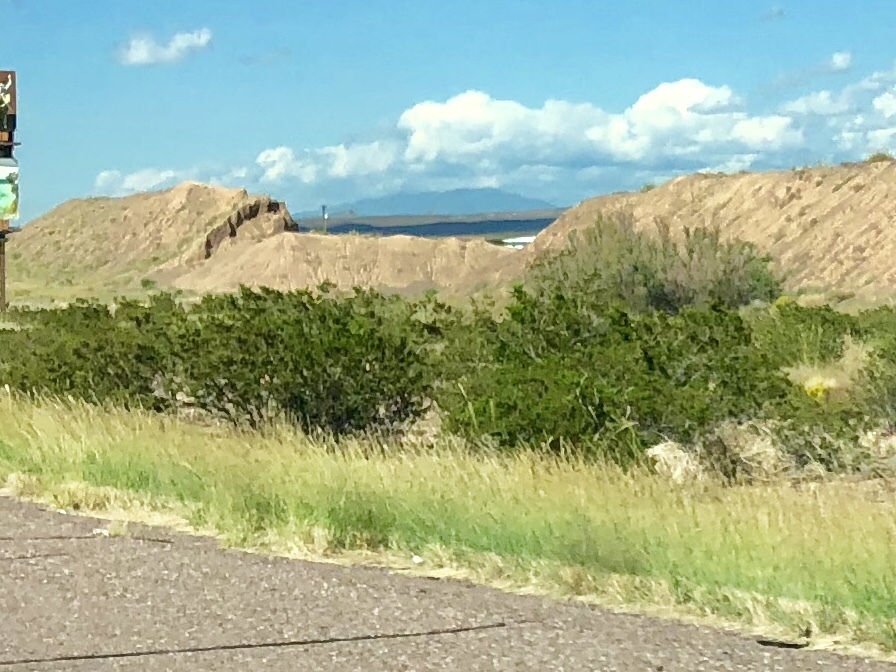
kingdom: Plantae
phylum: Tracheophyta
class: Magnoliopsida
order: Zygophyllales
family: Zygophyllaceae
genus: Larrea
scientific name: Larrea tridentata
